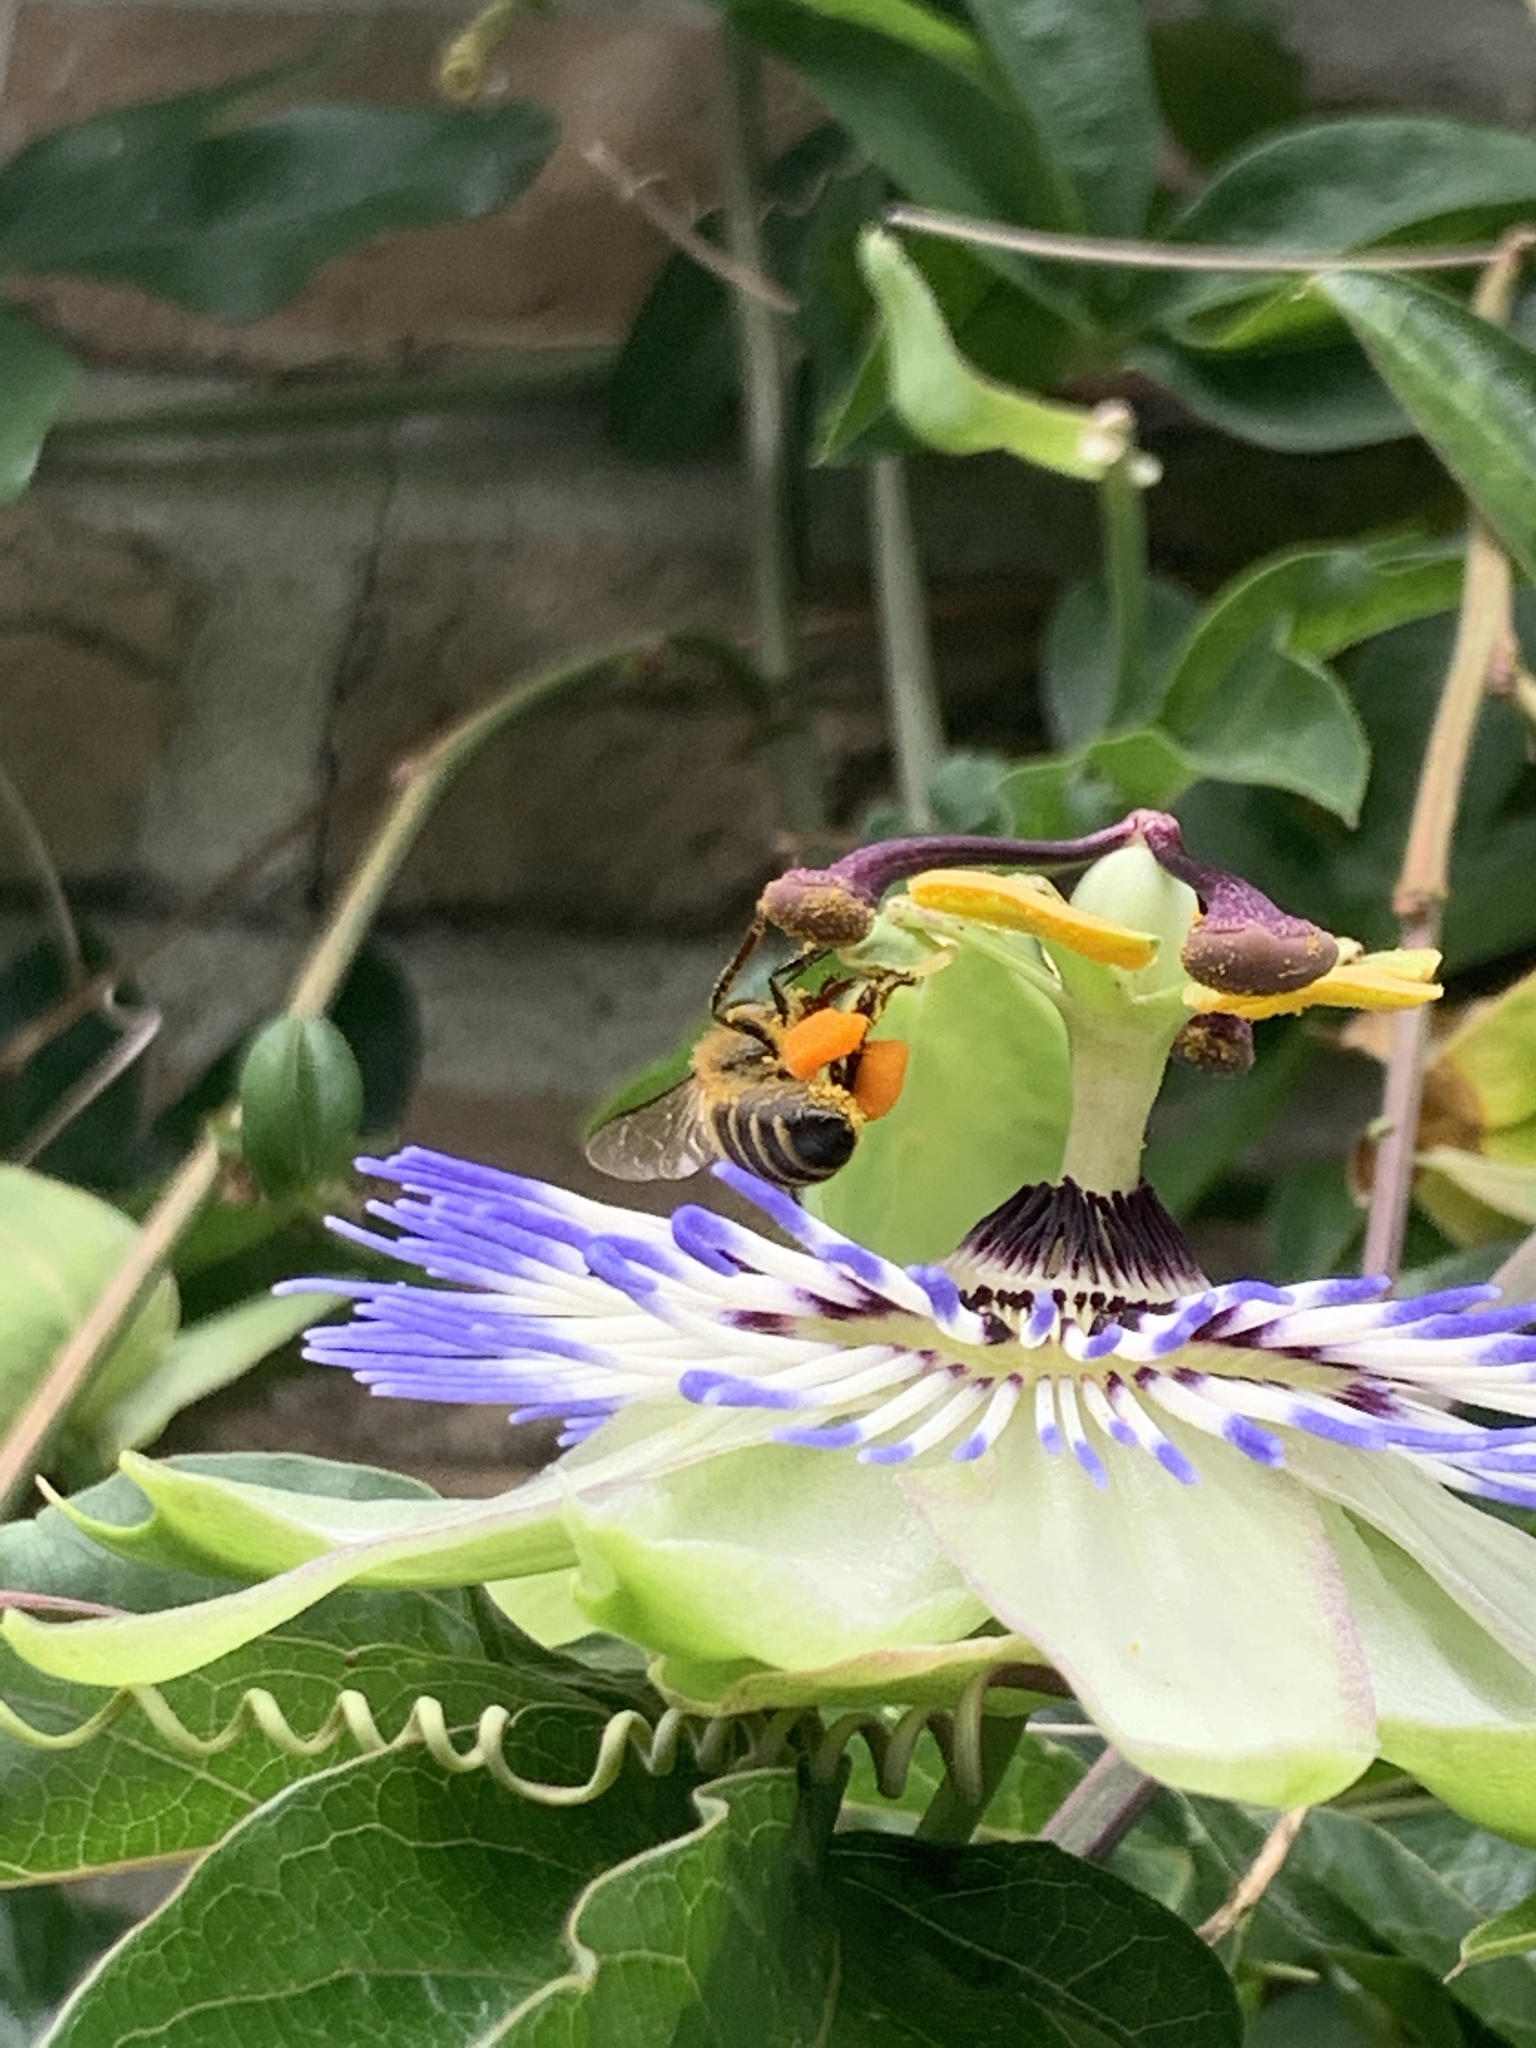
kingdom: Animalia
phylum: Arthropoda
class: Insecta
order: Hymenoptera
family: Apidae
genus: Apis
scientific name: Apis mellifera
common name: Honey bee
